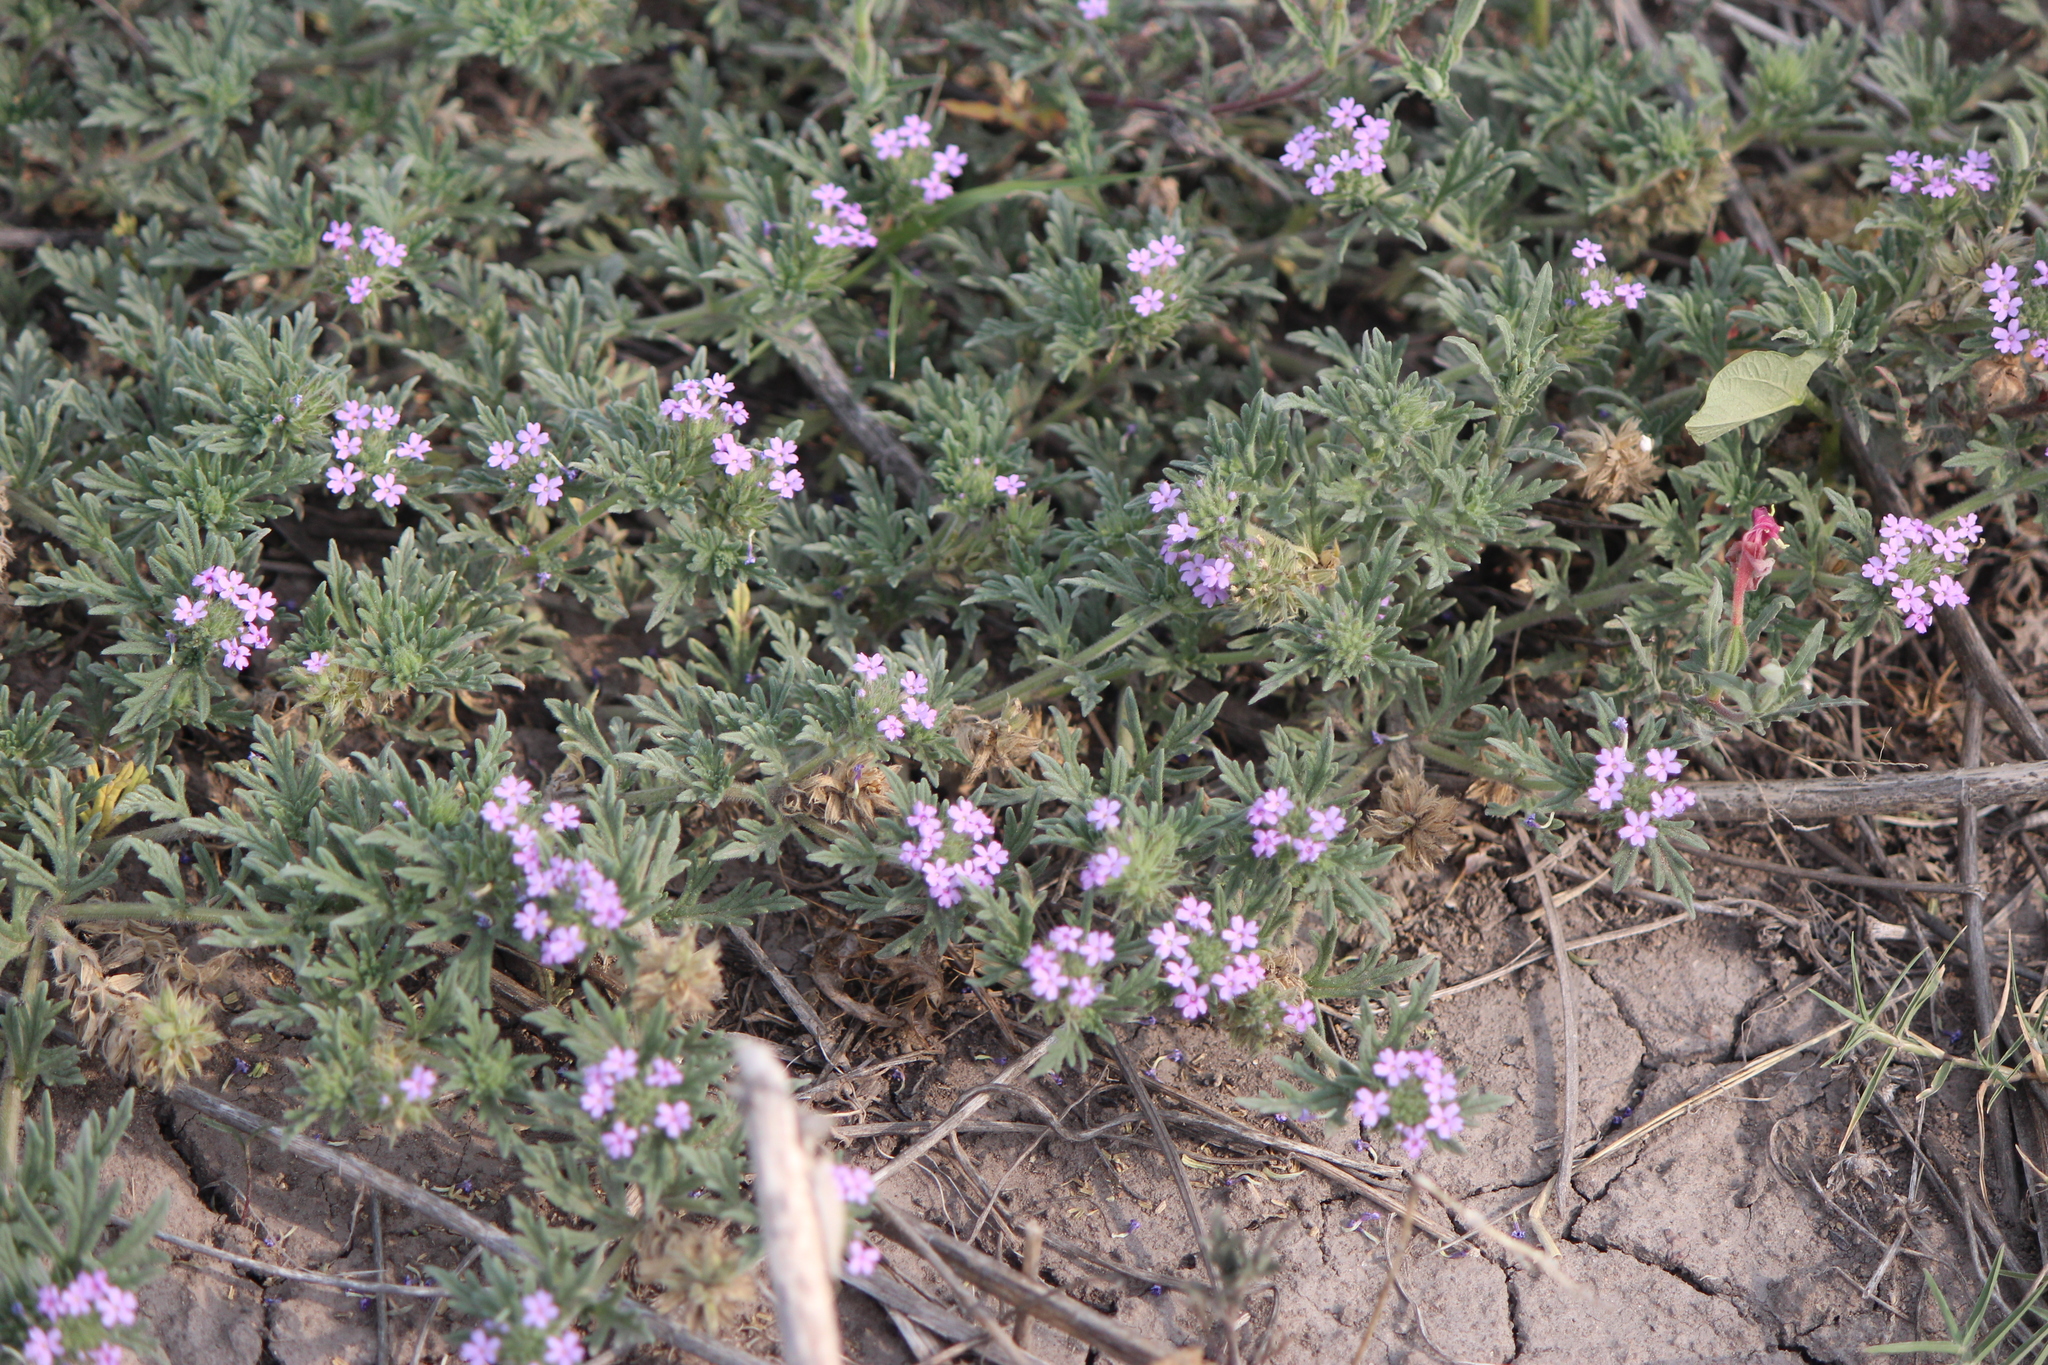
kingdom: Plantae
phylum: Tracheophyta
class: Magnoliopsida
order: Lamiales
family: Verbenaceae
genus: Verbena
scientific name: Verbena bipinnatifida
